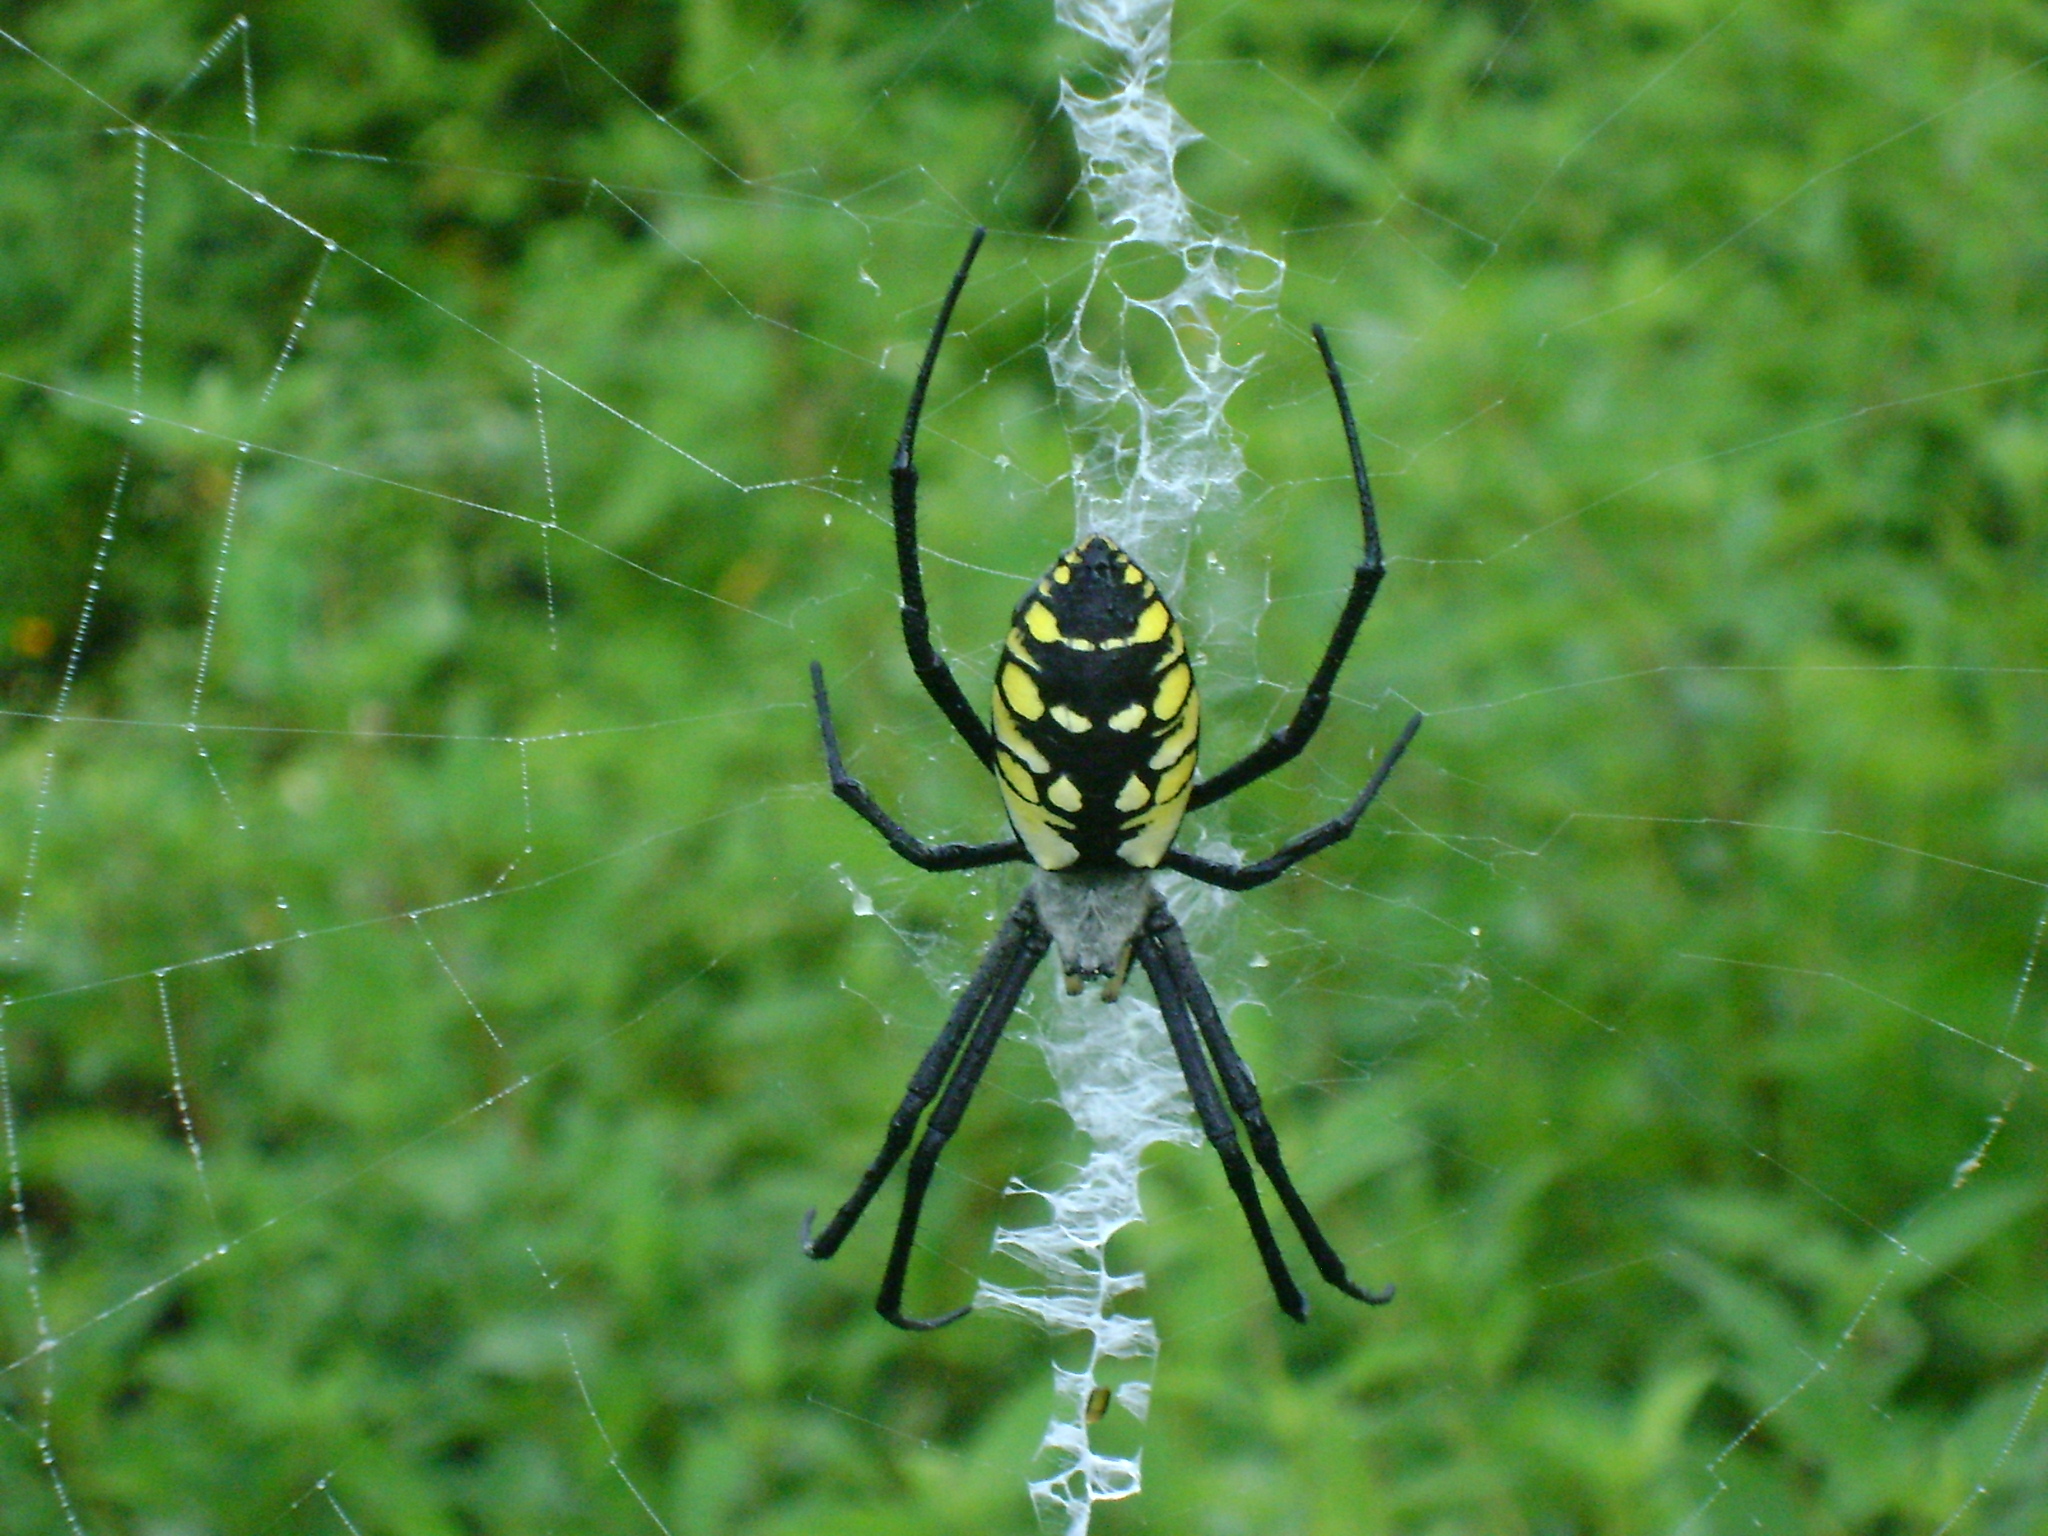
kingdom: Animalia
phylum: Arthropoda
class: Arachnida
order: Araneae
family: Araneidae
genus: Argiope
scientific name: Argiope aurantia
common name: Orb weavers
